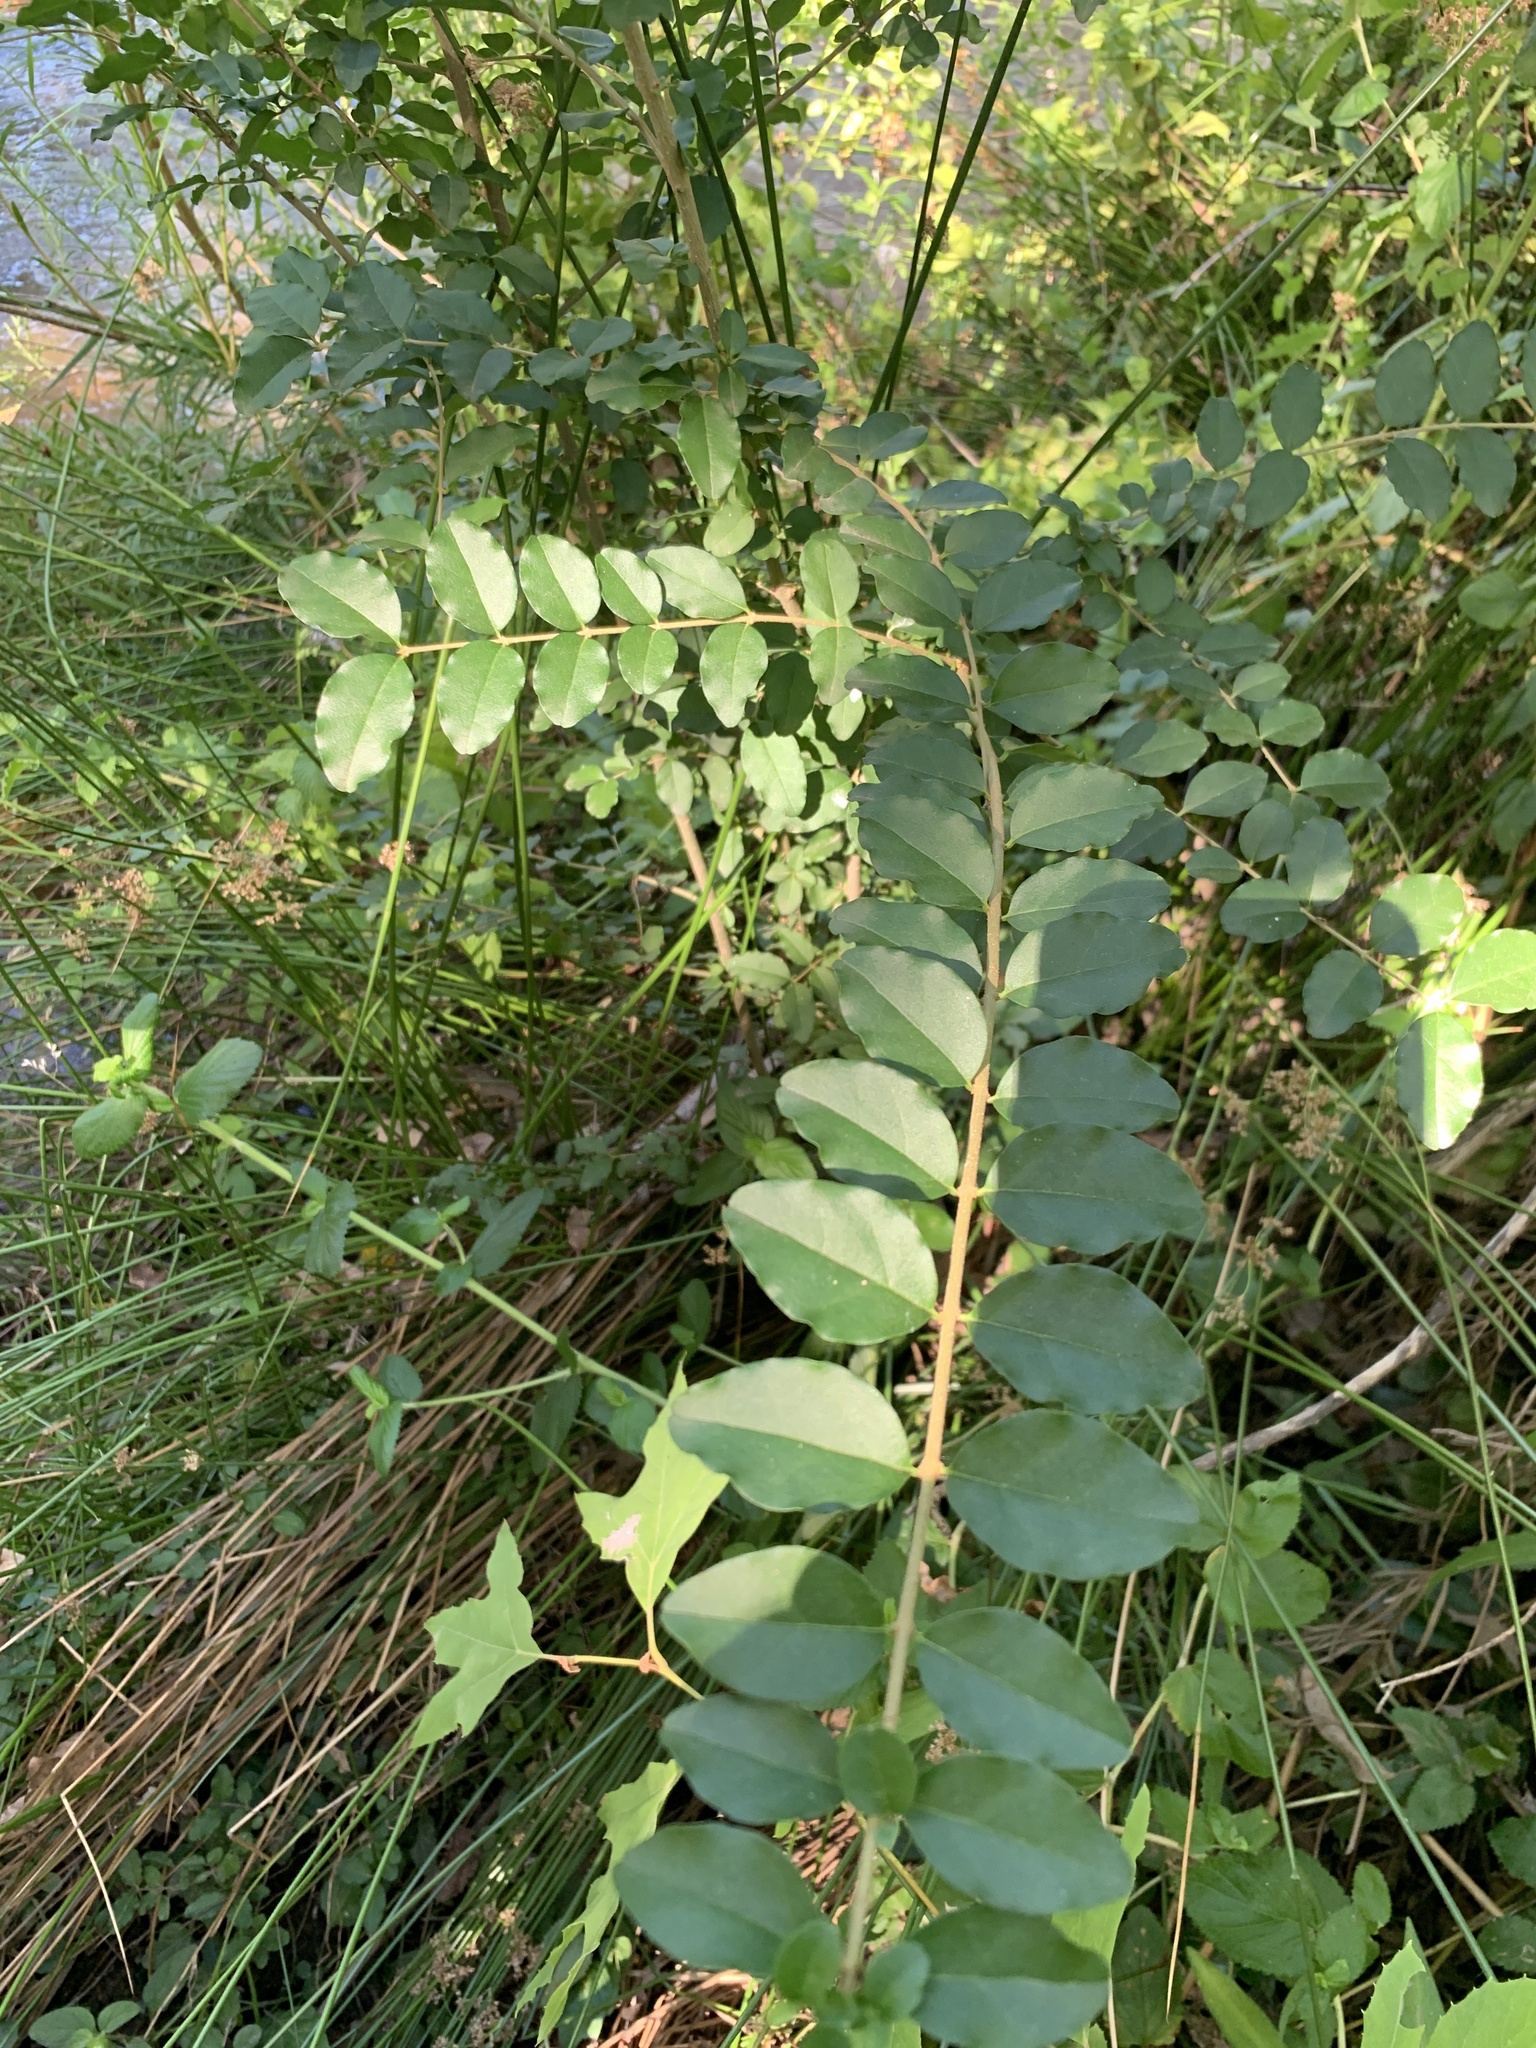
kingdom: Plantae
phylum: Tracheophyta
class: Magnoliopsida
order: Lamiales
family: Oleaceae
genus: Ligustrum
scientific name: Ligustrum sinense
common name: Chinese privet
